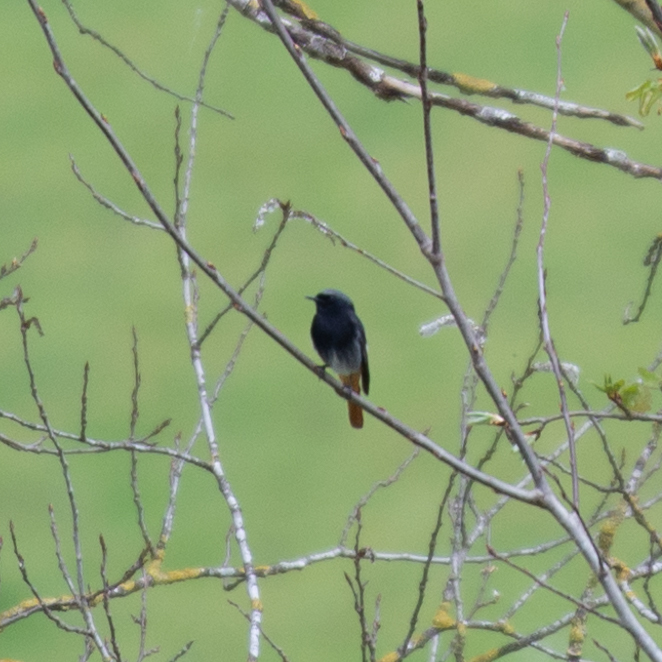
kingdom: Animalia
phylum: Chordata
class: Aves
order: Passeriformes
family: Muscicapidae
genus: Phoenicurus
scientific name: Phoenicurus ochruros
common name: Black redstart
